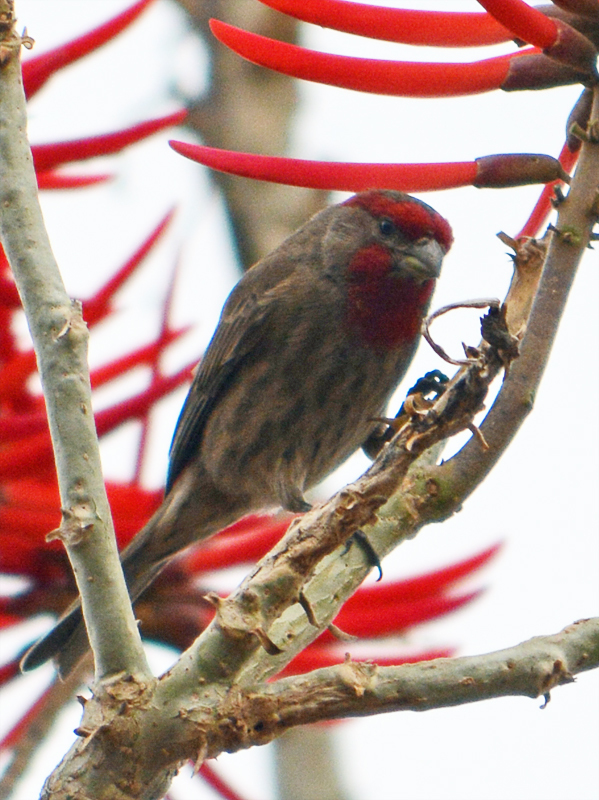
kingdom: Animalia
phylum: Chordata
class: Aves
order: Passeriformes
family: Fringillidae
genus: Haemorhous
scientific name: Haemorhous mexicanus
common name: House finch
